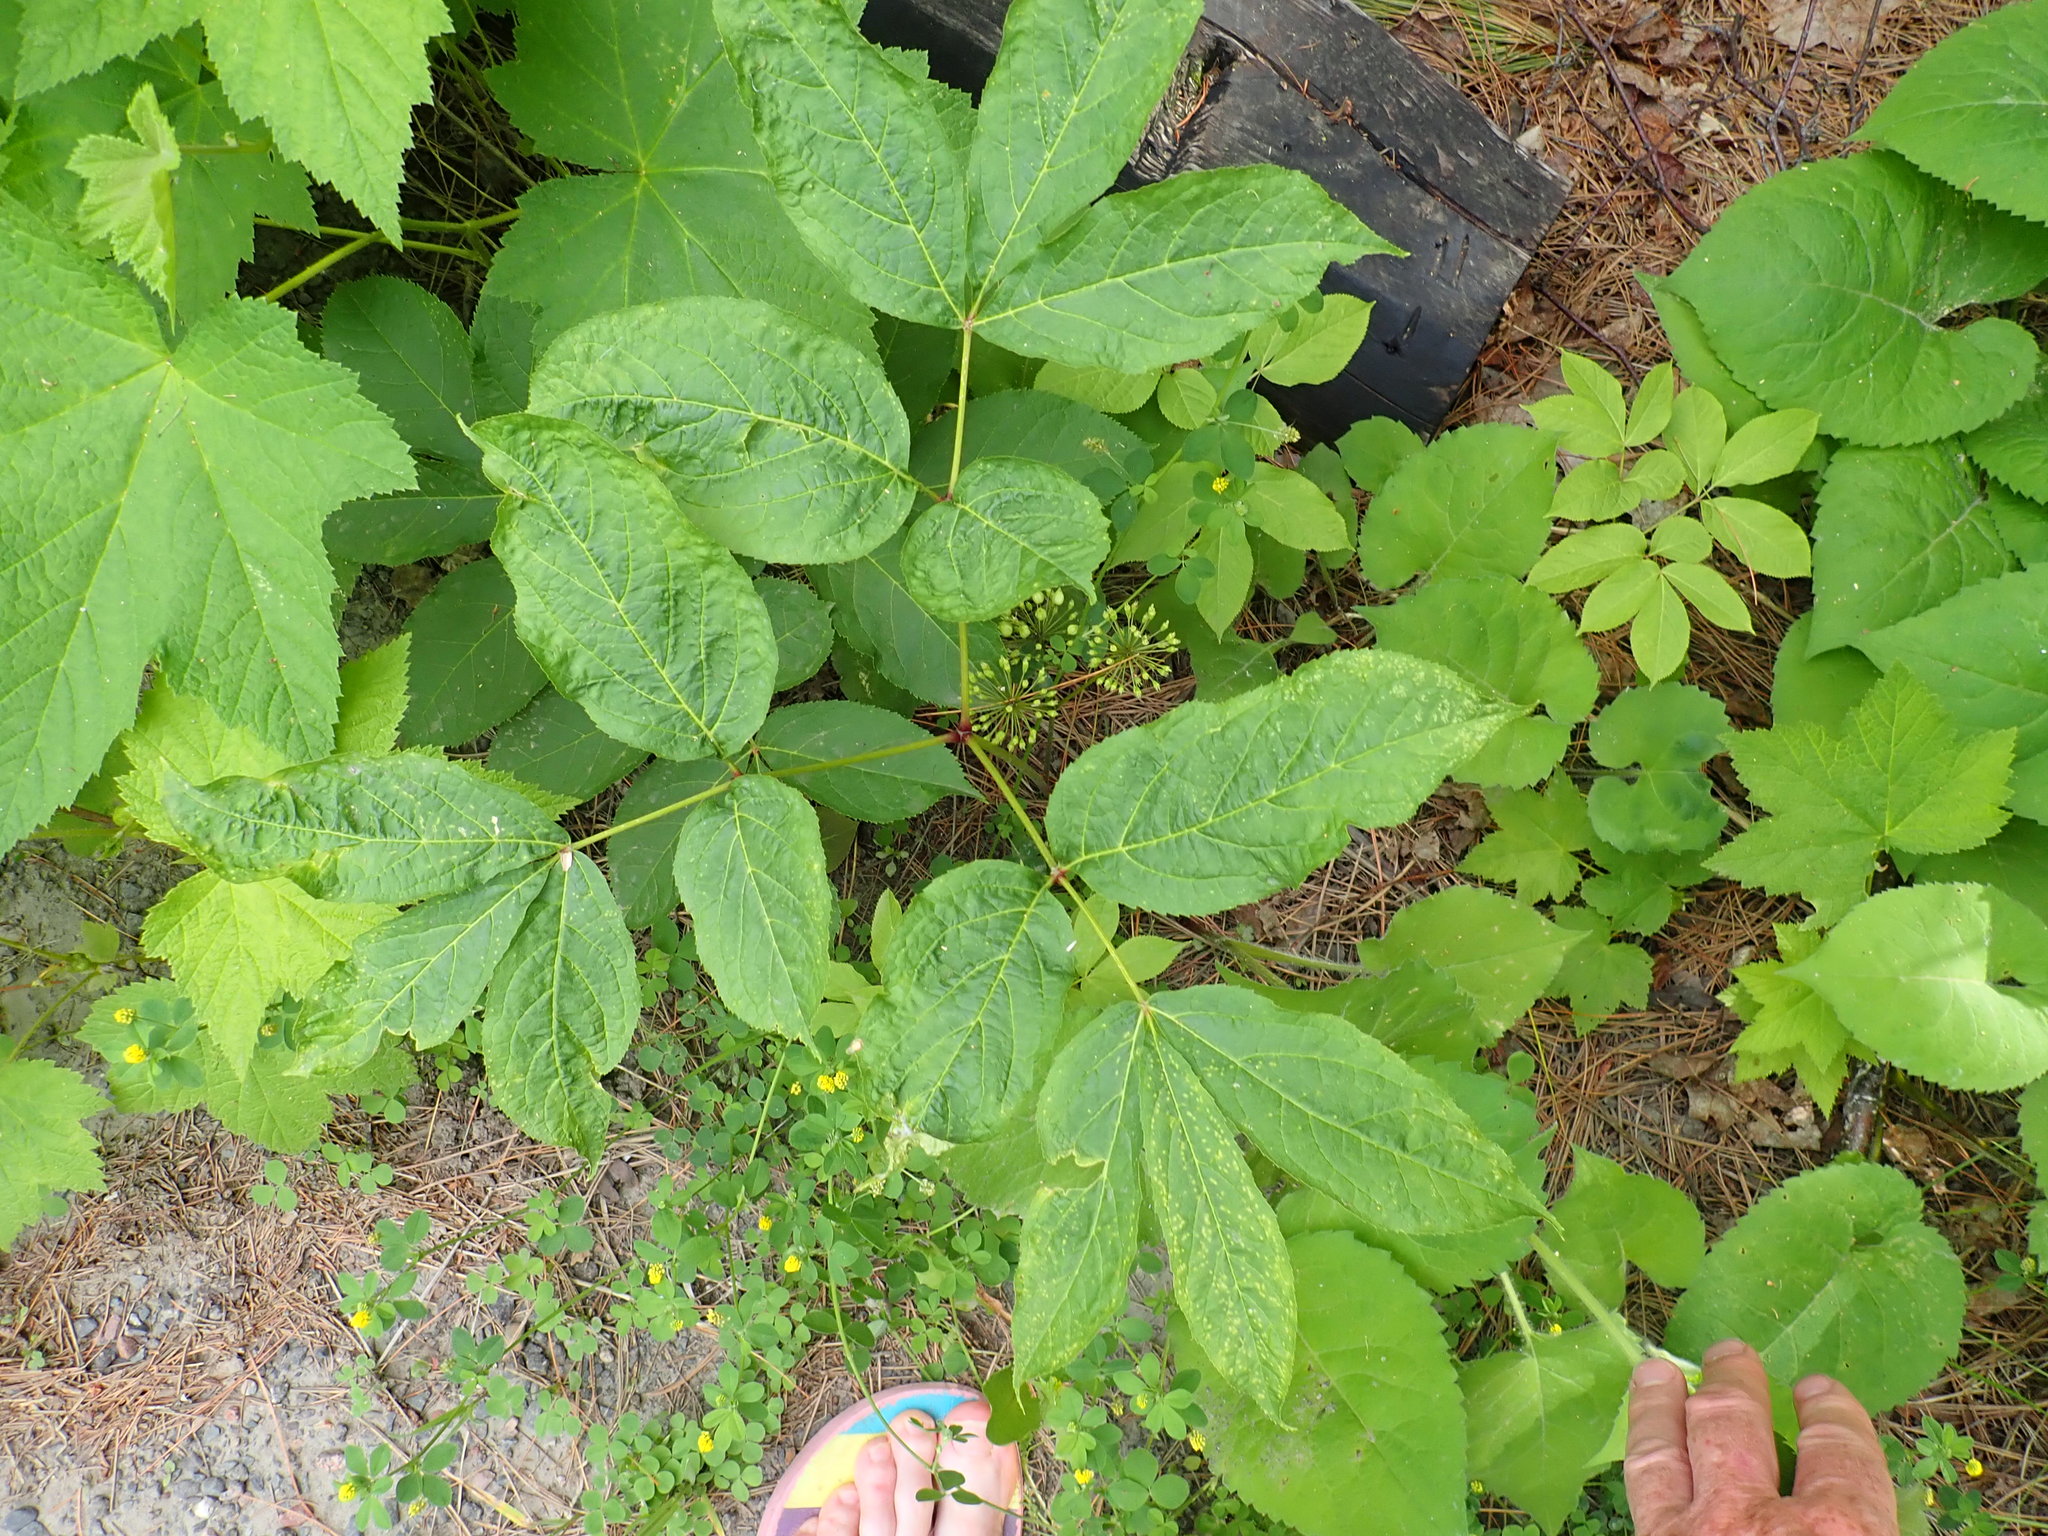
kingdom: Plantae
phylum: Tracheophyta
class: Magnoliopsida
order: Apiales
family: Araliaceae
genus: Aralia
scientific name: Aralia nudicaulis
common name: Wild sarsaparilla
